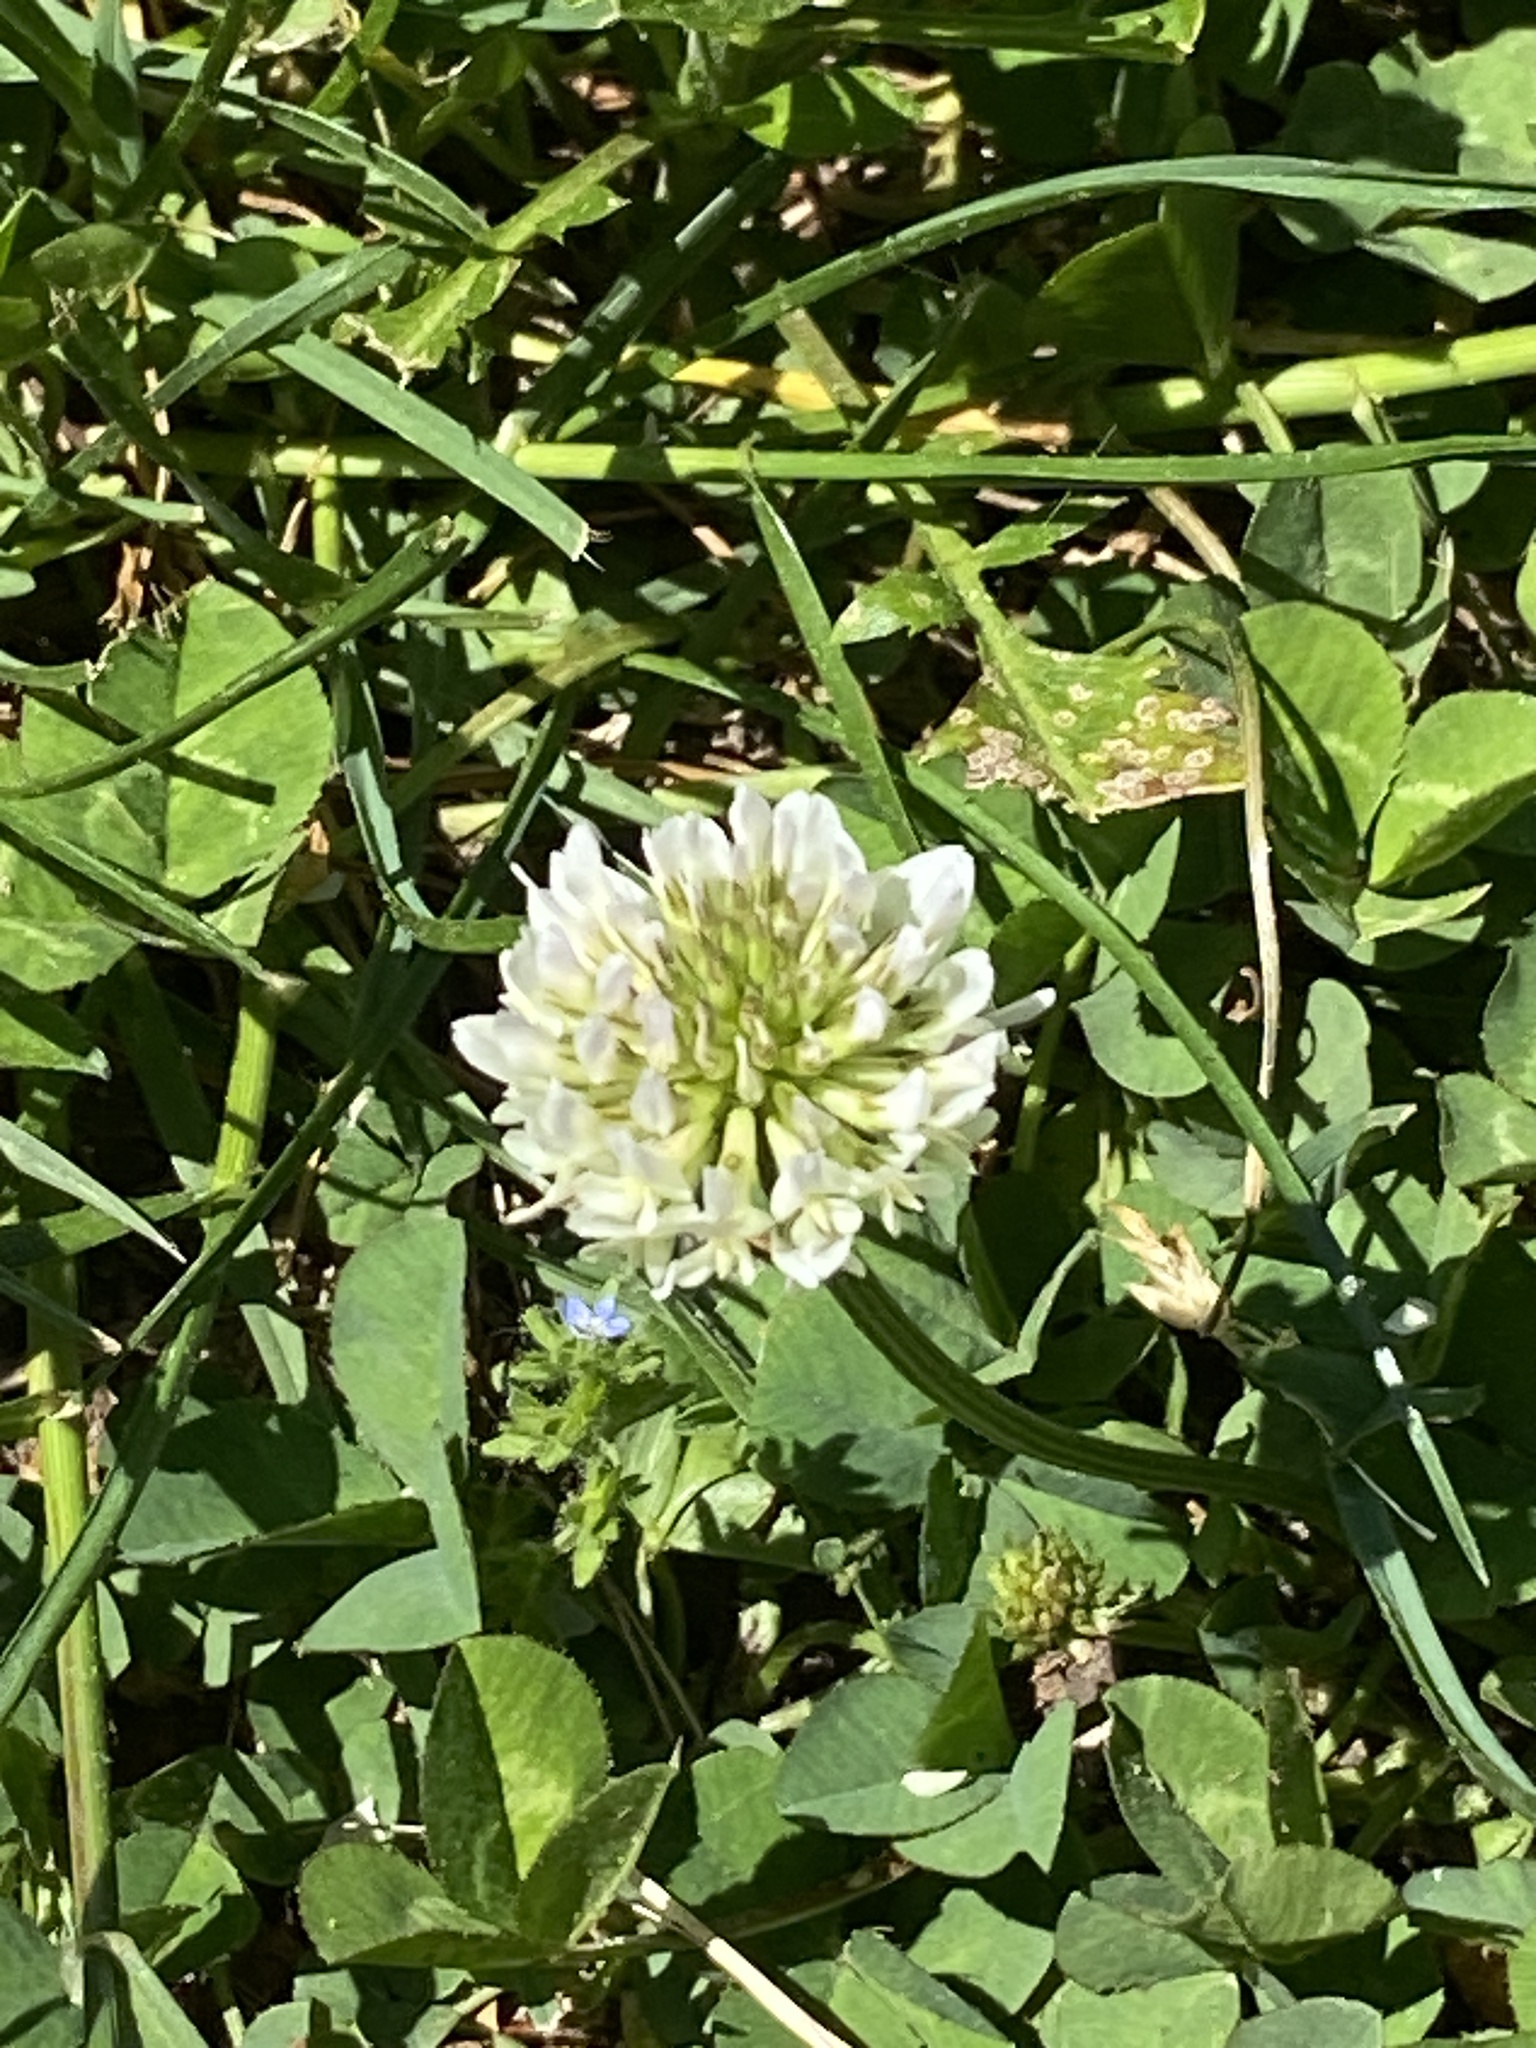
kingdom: Plantae
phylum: Tracheophyta
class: Magnoliopsida
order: Fabales
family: Fabaceae
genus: Trifolium
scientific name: Trifolium repens
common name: White clover
